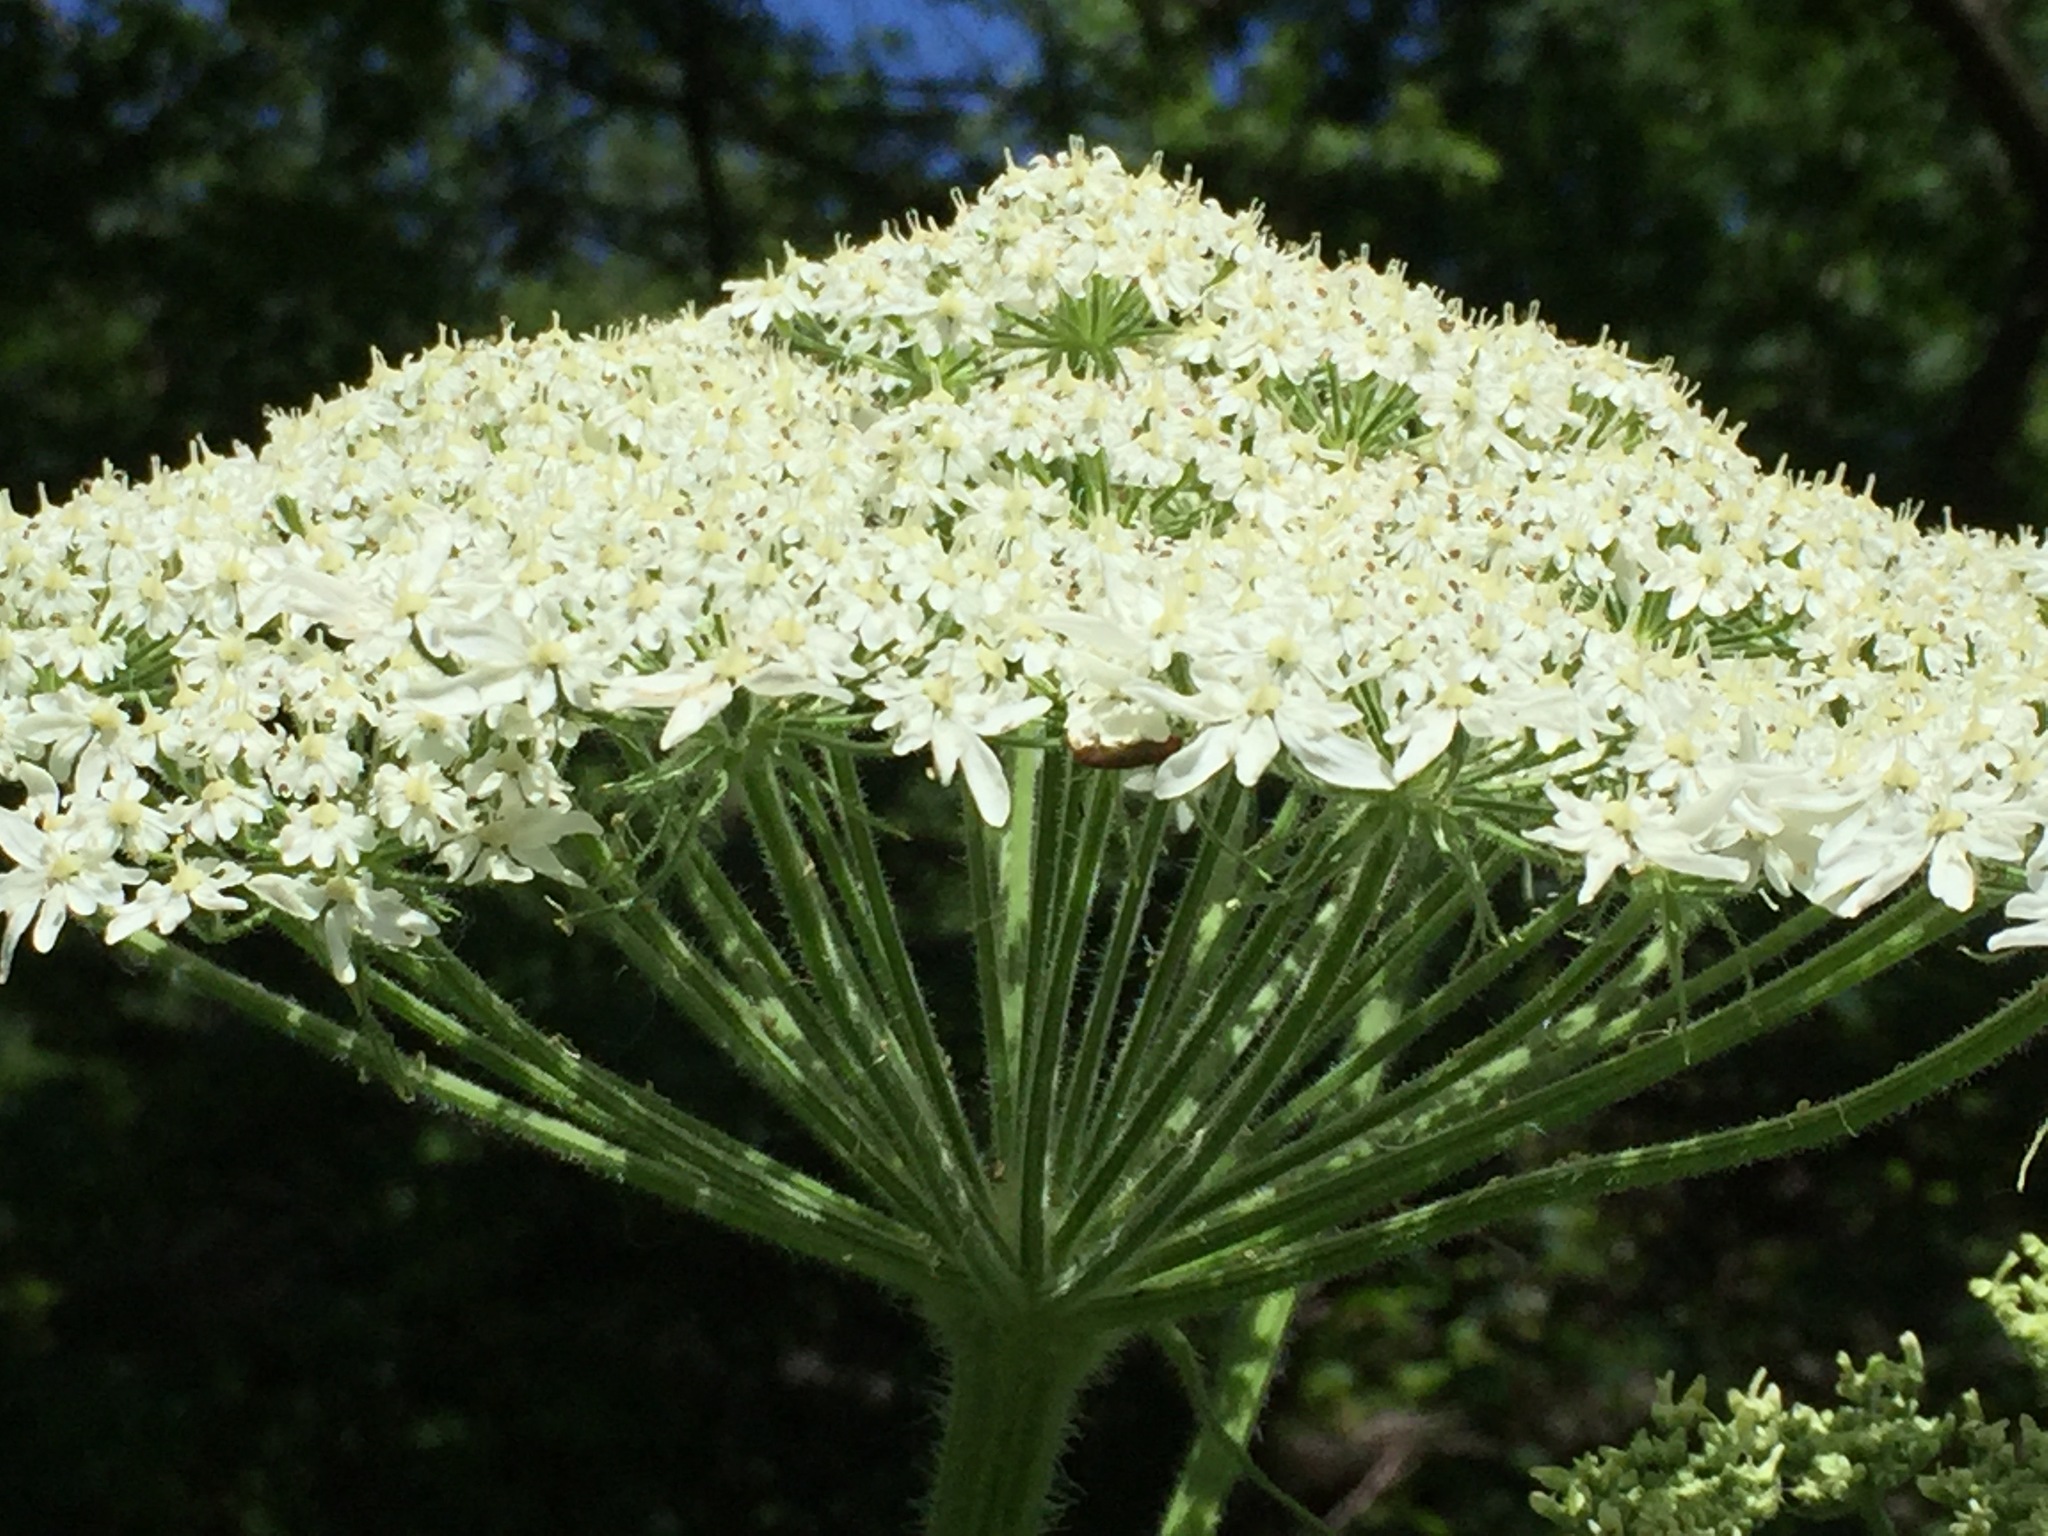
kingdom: Plantae
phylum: Tracheophyta
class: Magnoliopsida
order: Apiales
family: Apiaceae
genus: Heracleum
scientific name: Heracleum maximum
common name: American cow parsnip
